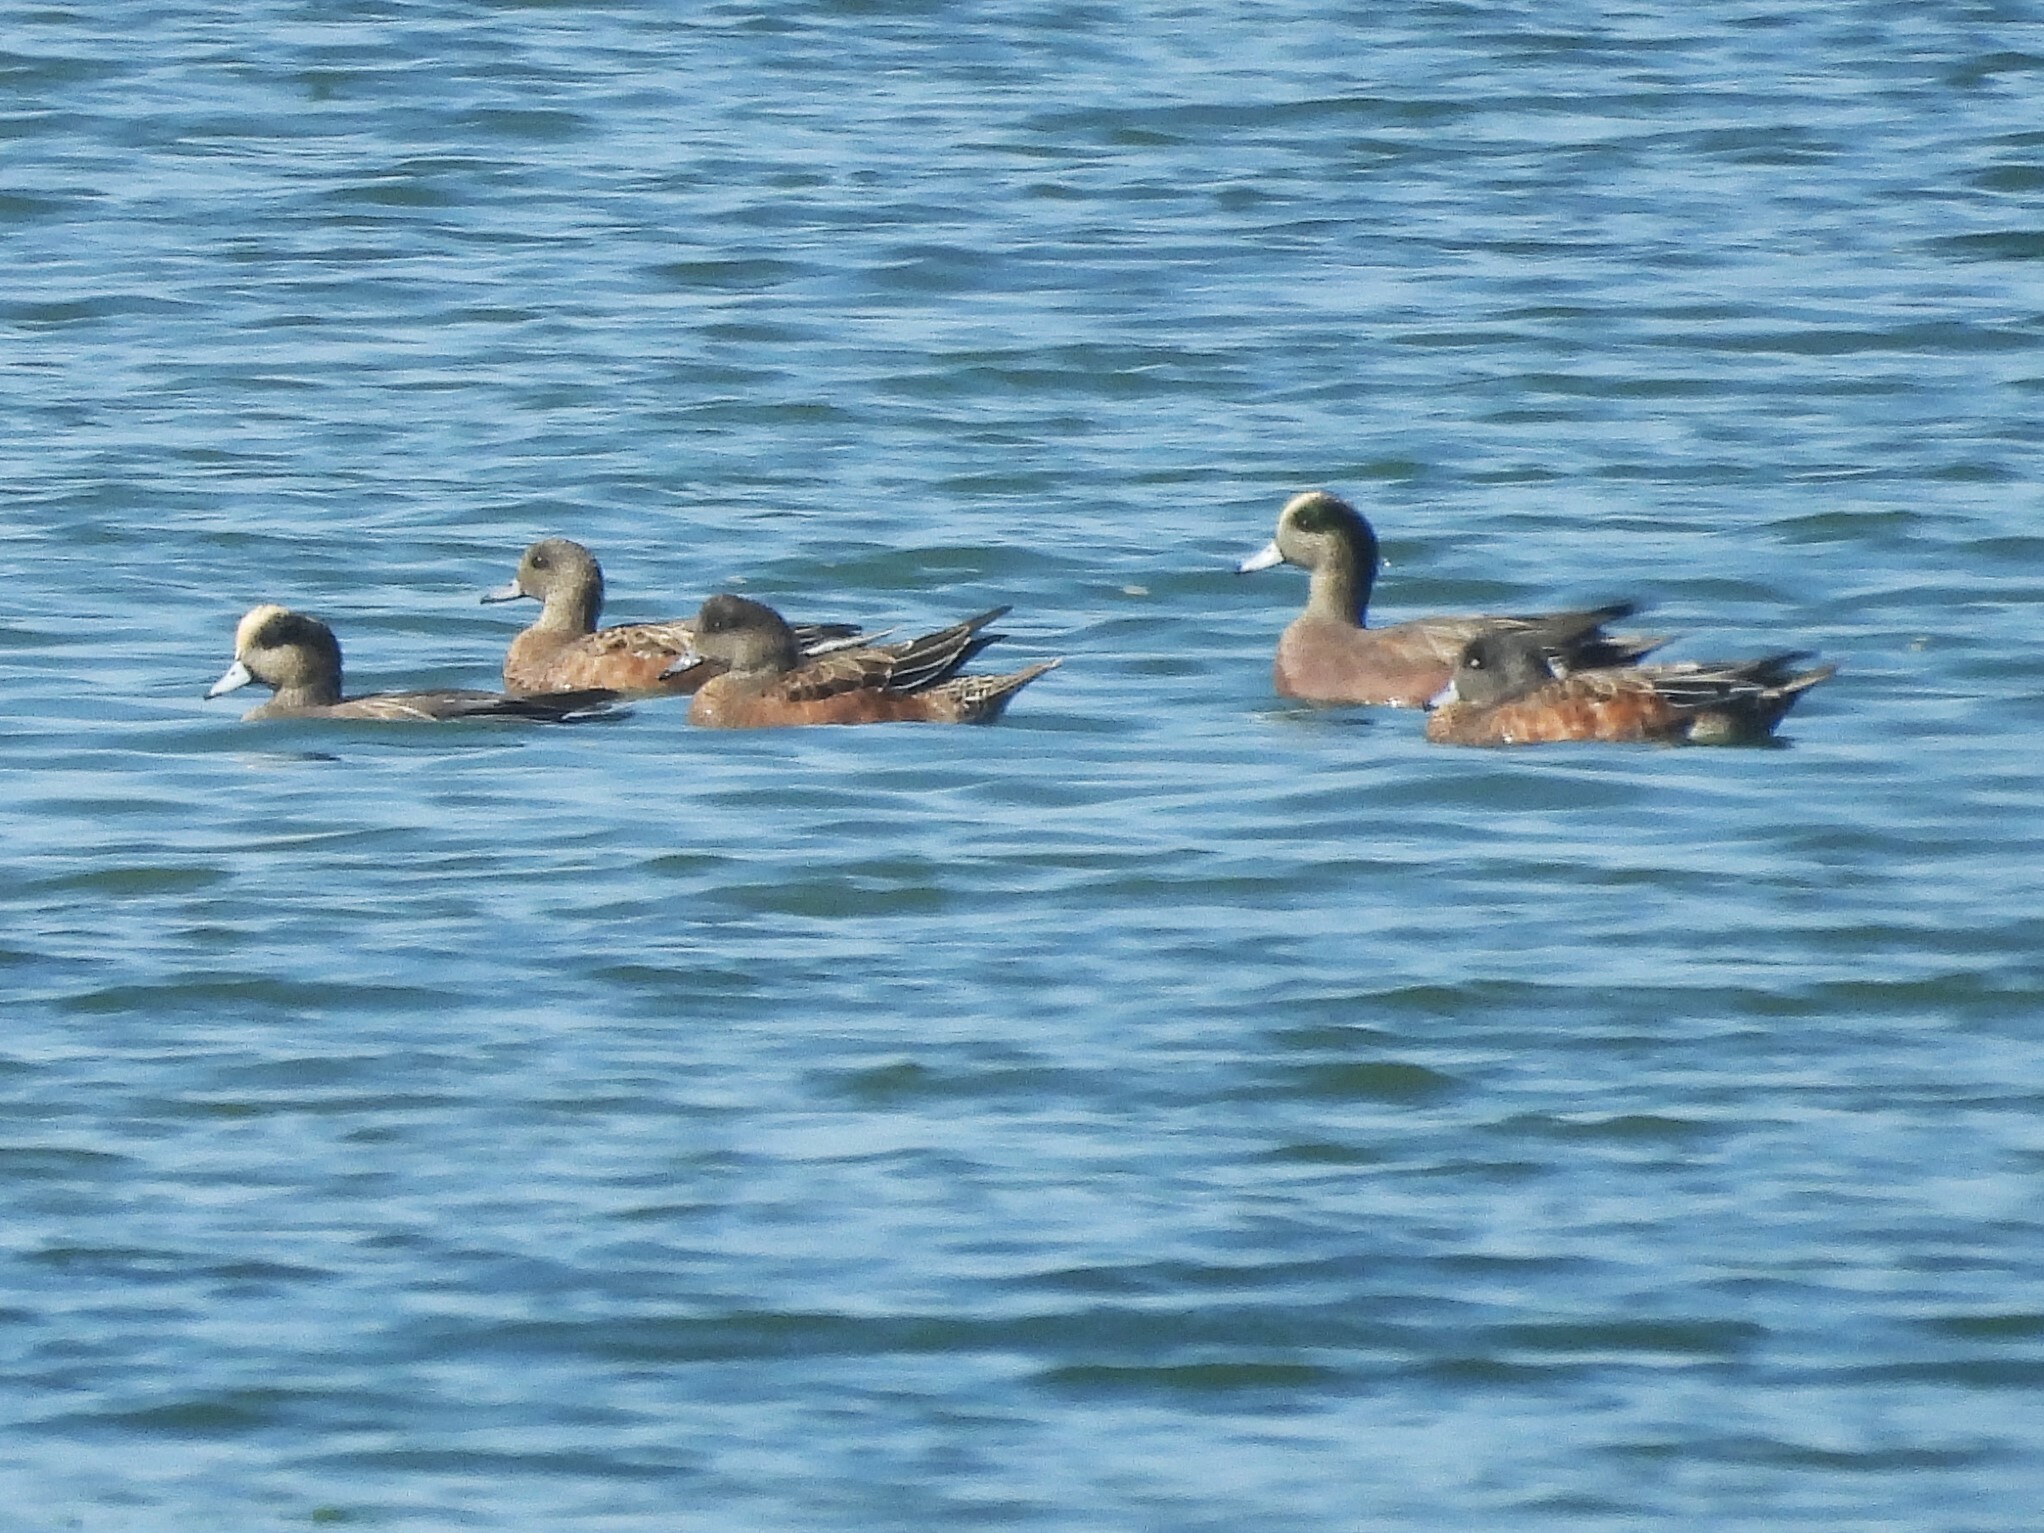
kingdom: Animalia
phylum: Chordata
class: Aves
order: Anseriformes
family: Anatidae
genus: Mareca
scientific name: Mareca americana
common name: American wigeon
